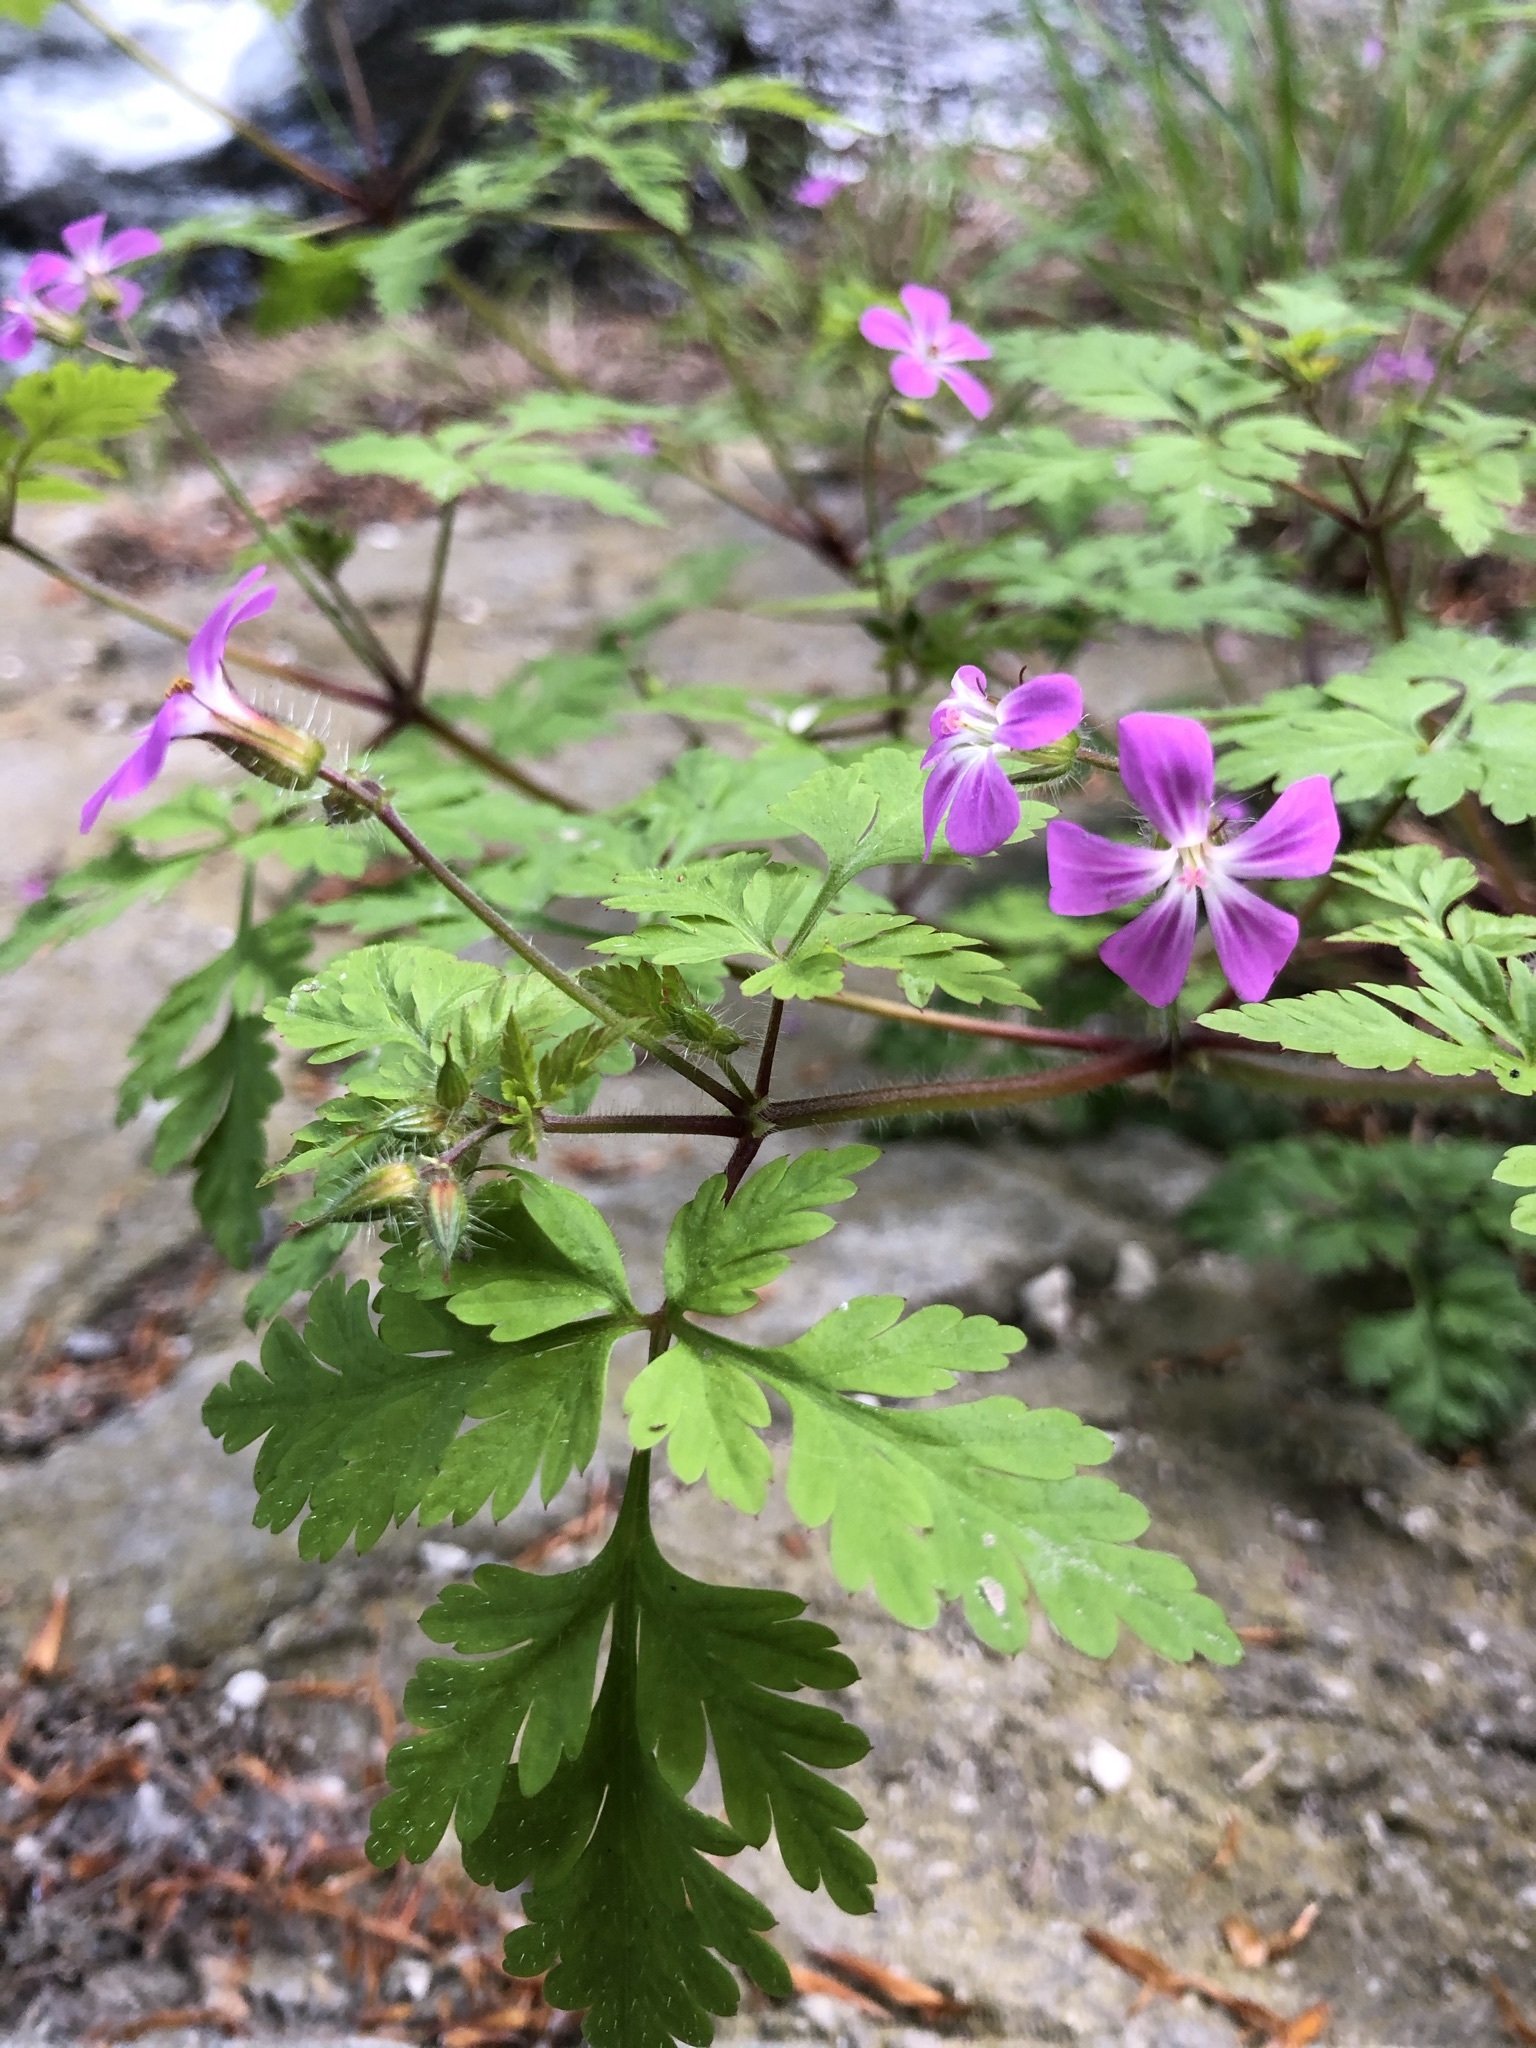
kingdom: Plantae
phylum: Tracheophyta
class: Magnoliopsida
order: Geraniales
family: Geraniaceae
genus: Geranium
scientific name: Geranium robertianum
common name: Herb-robert
